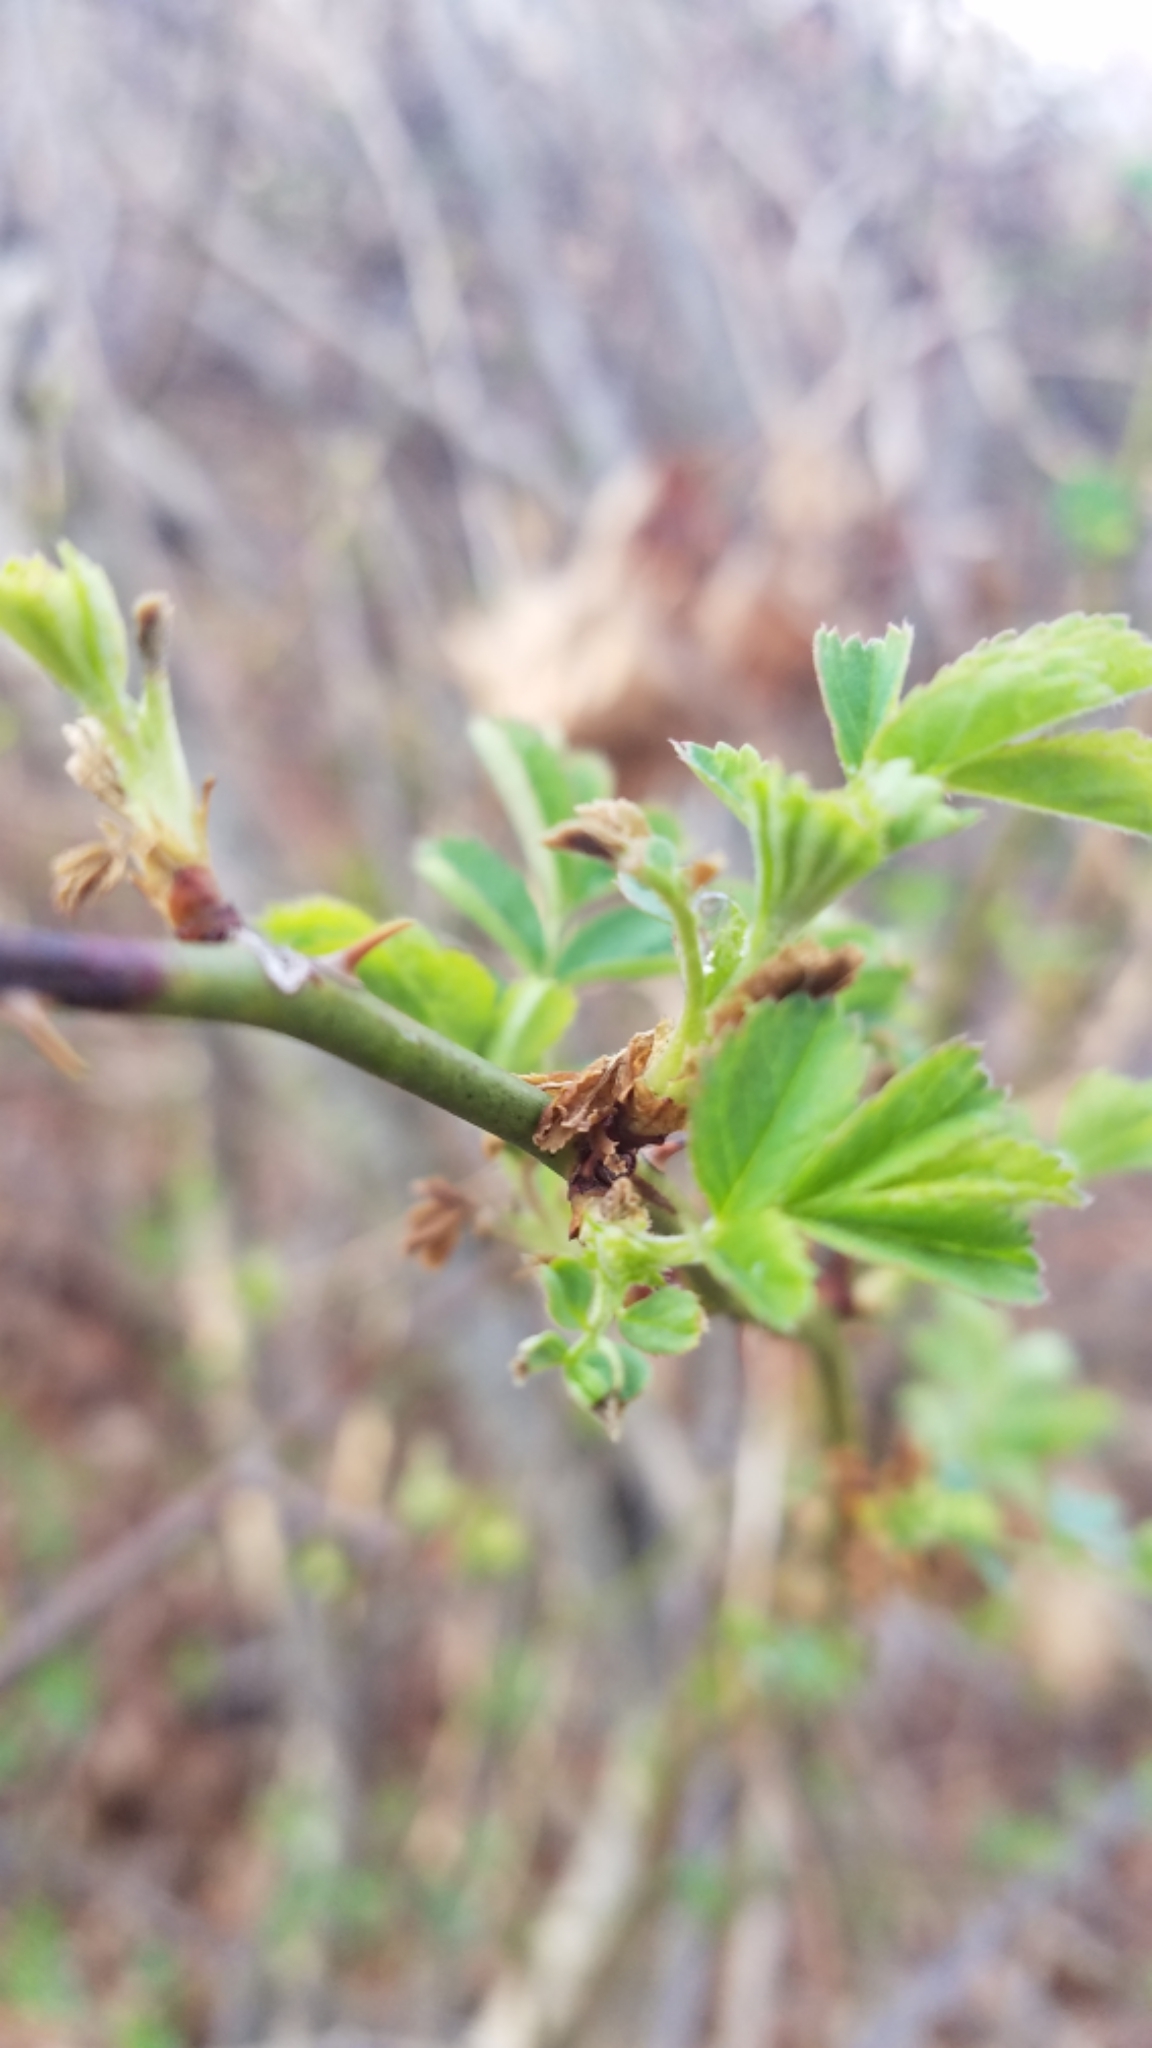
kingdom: Plantae
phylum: Tracheophyta
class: Magnoliopsida
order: Rosales
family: Rosaceae
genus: Rosa
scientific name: Rosa multiflora
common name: Multiflora rose
